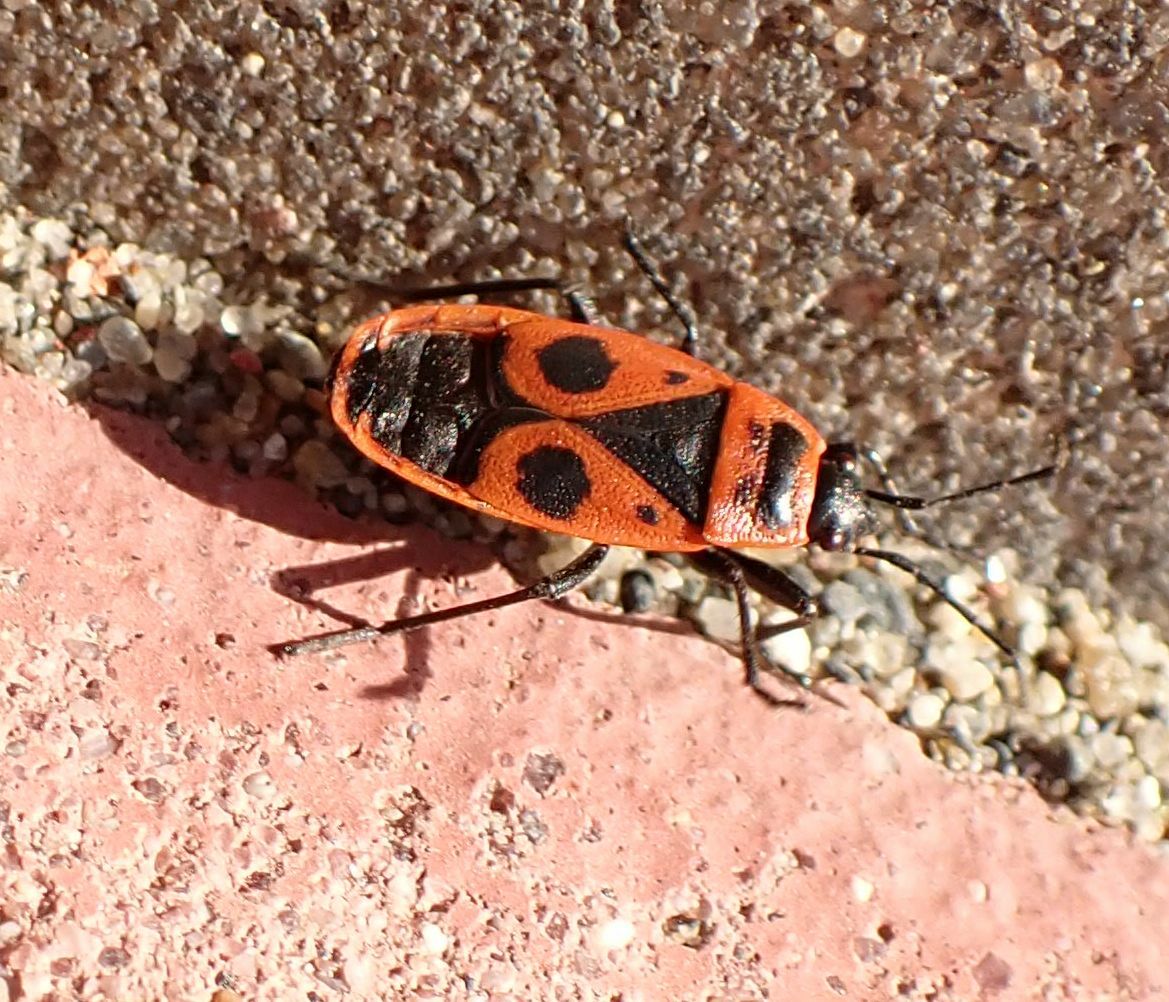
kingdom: Animalia
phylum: Arthropoda
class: Insecta
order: Hemiptera
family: Pyrrhocoridae
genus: Pyrrhocoris
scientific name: Pyrrhocoris apterus
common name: Firebug
